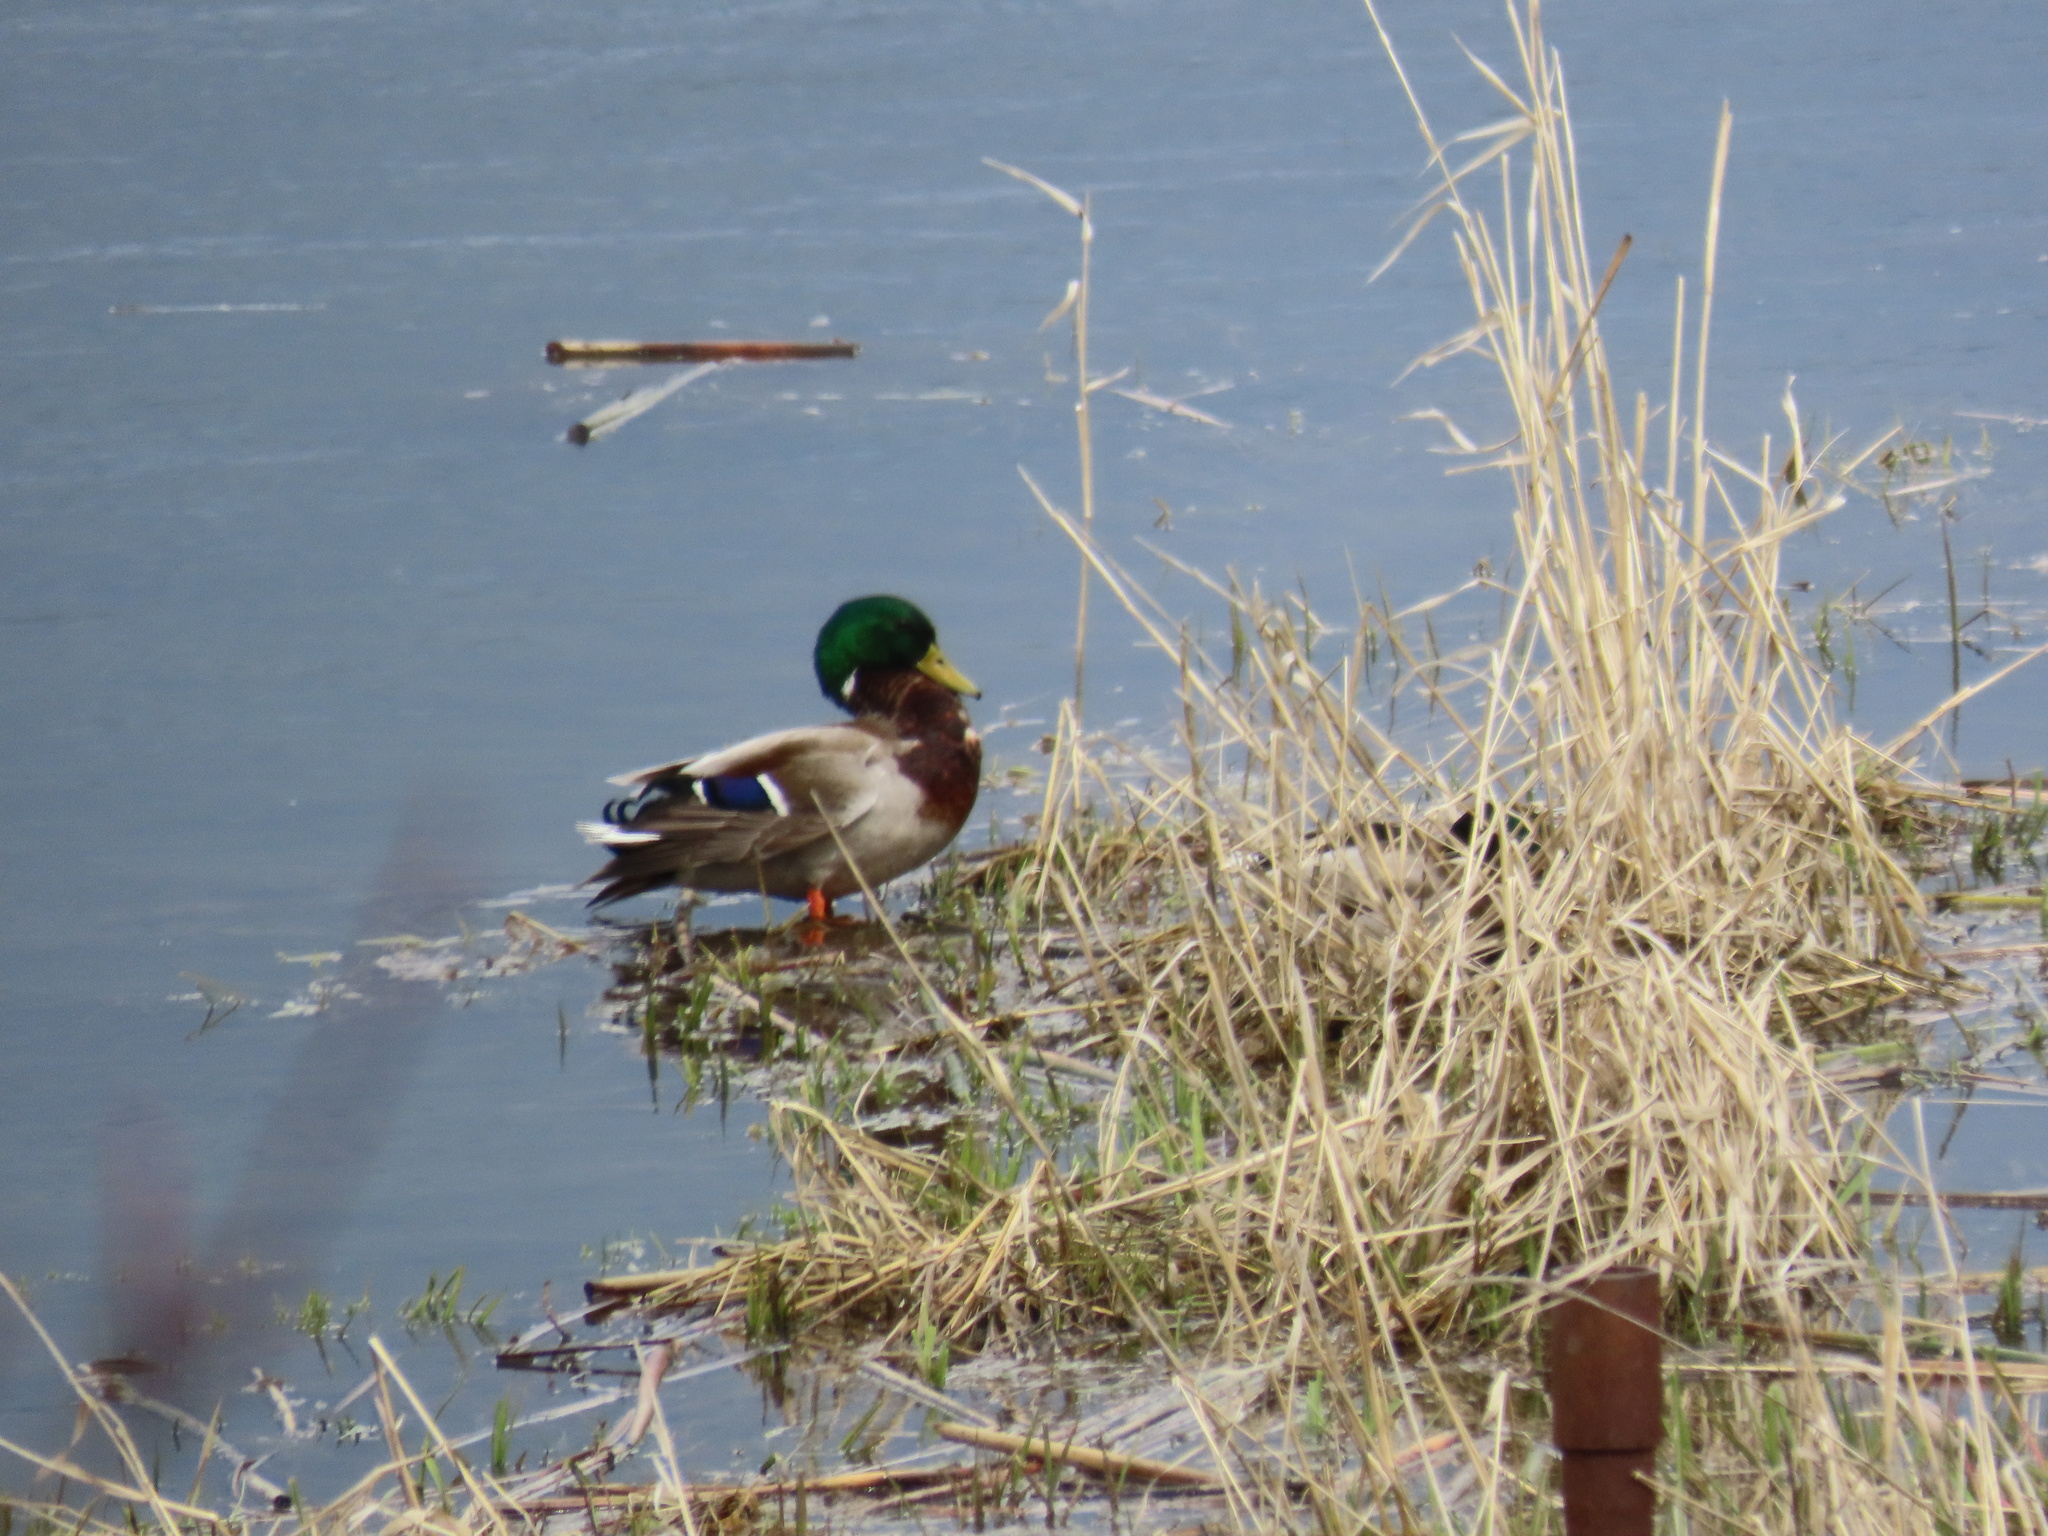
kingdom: Animalia
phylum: Chordata
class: Aves
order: Anseriformes
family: Anatidae
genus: Anas
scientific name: Anas platyrhynchos
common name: Mallard
